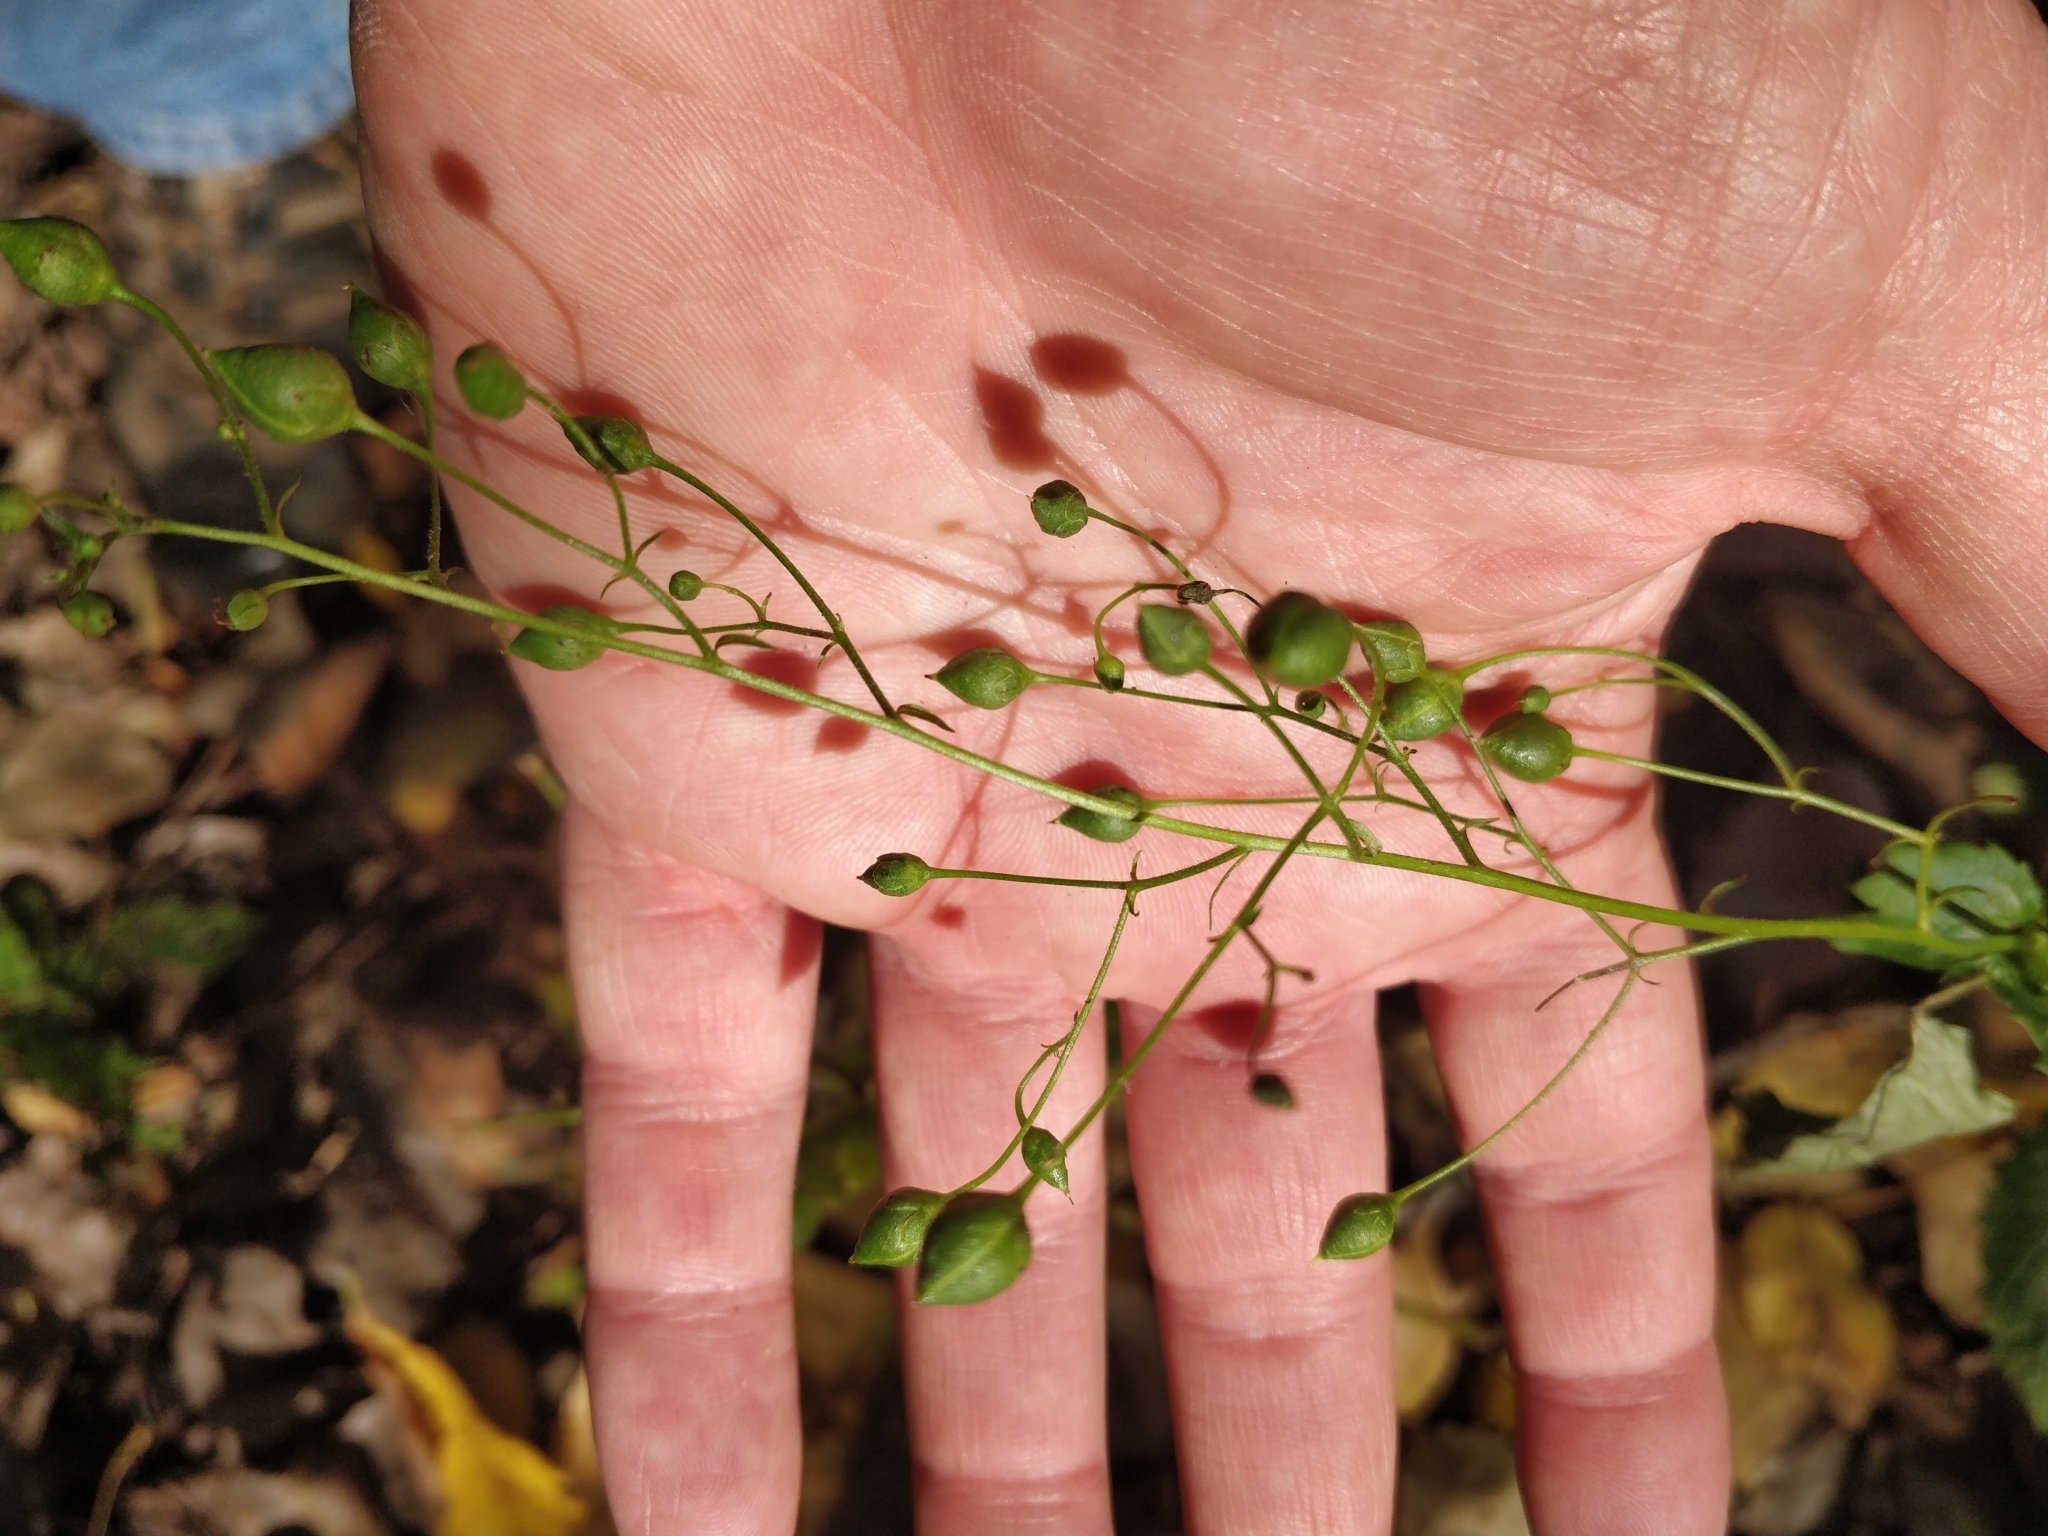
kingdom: Plantae
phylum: Tracheophyta
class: Magnoliopsida
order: Lamiales
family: Scrophulariaceae
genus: Scrophularia
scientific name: Scrophularia marilandica
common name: Eastern figwort
